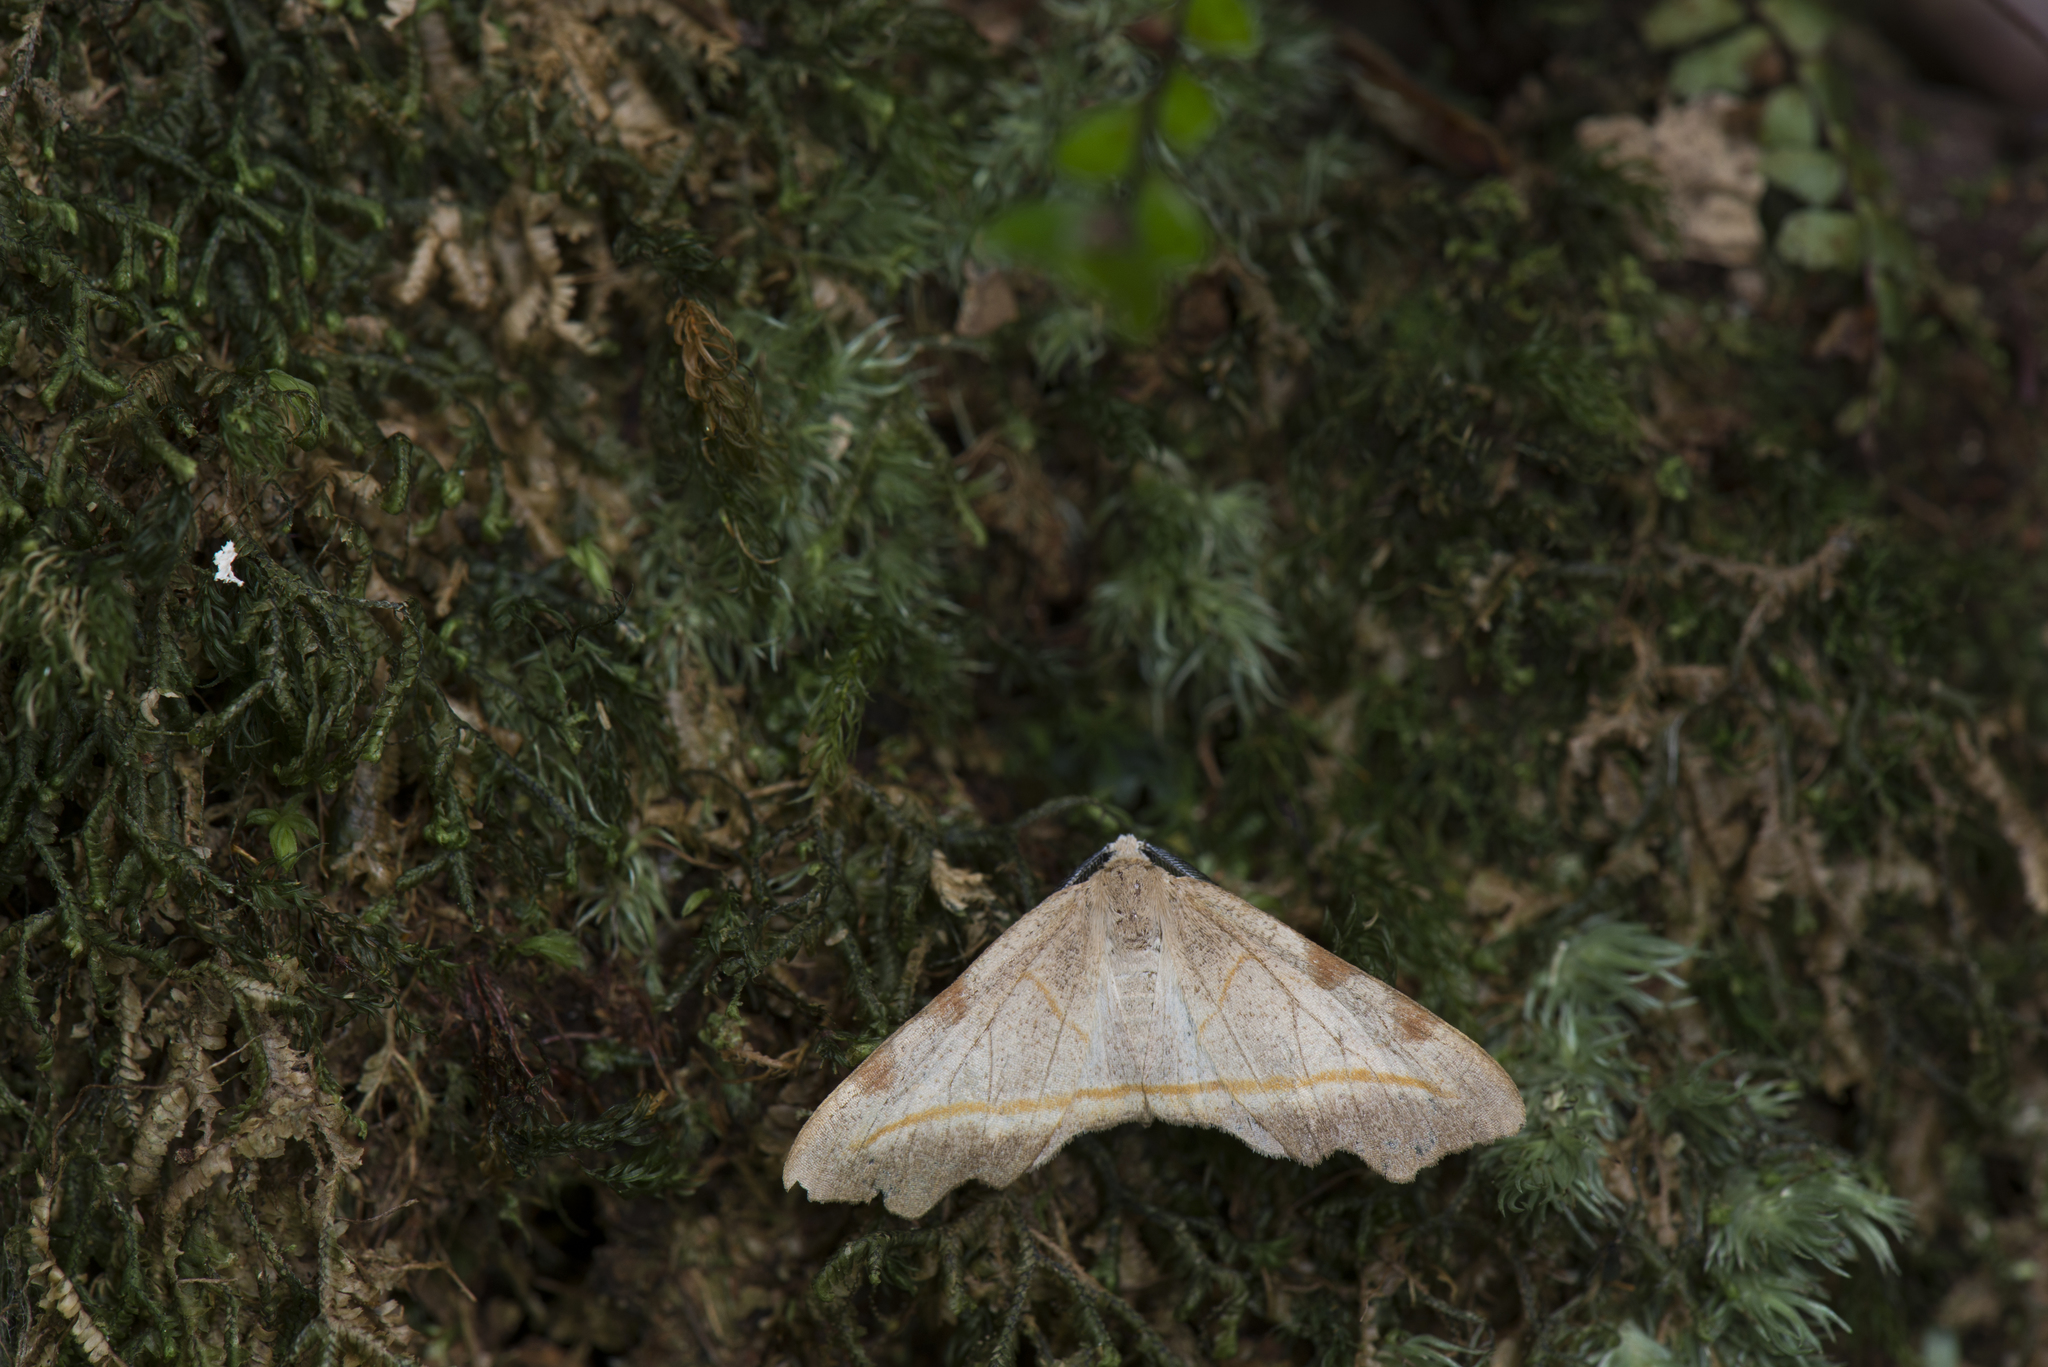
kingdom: Animalia
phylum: Arthropoda
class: Insecta
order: Lepidoptera
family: Geometridae
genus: Achrosis
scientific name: Achrosis rufescens
